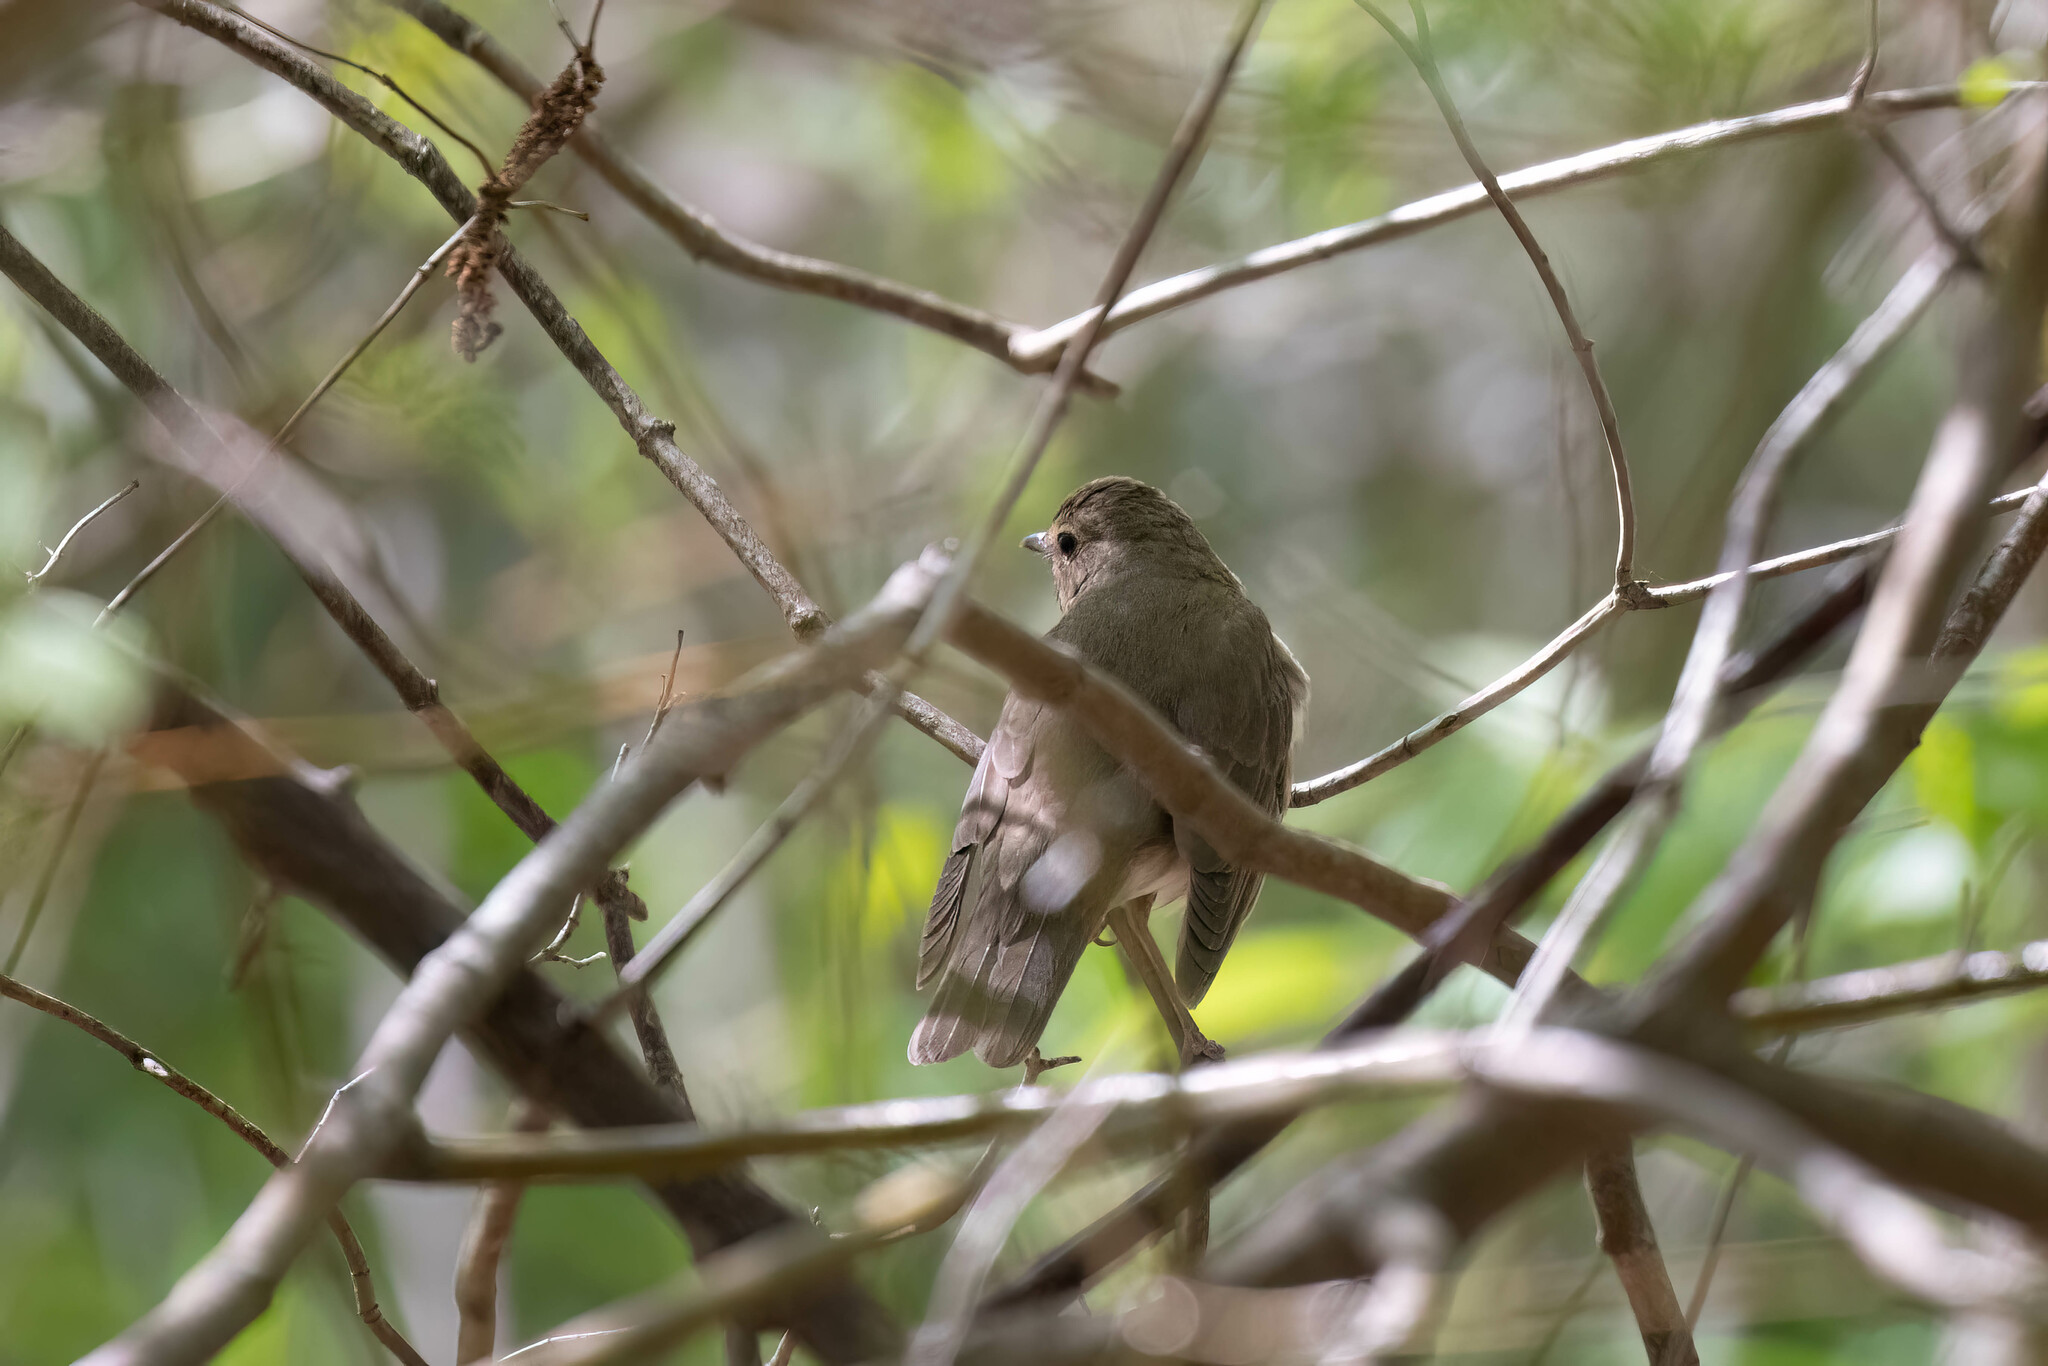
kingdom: Animalia
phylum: Chordata
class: Aves
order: Passeriformes
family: Turdidae
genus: Catharus
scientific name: Catharus minimus
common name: Grey-cheeked thrush
